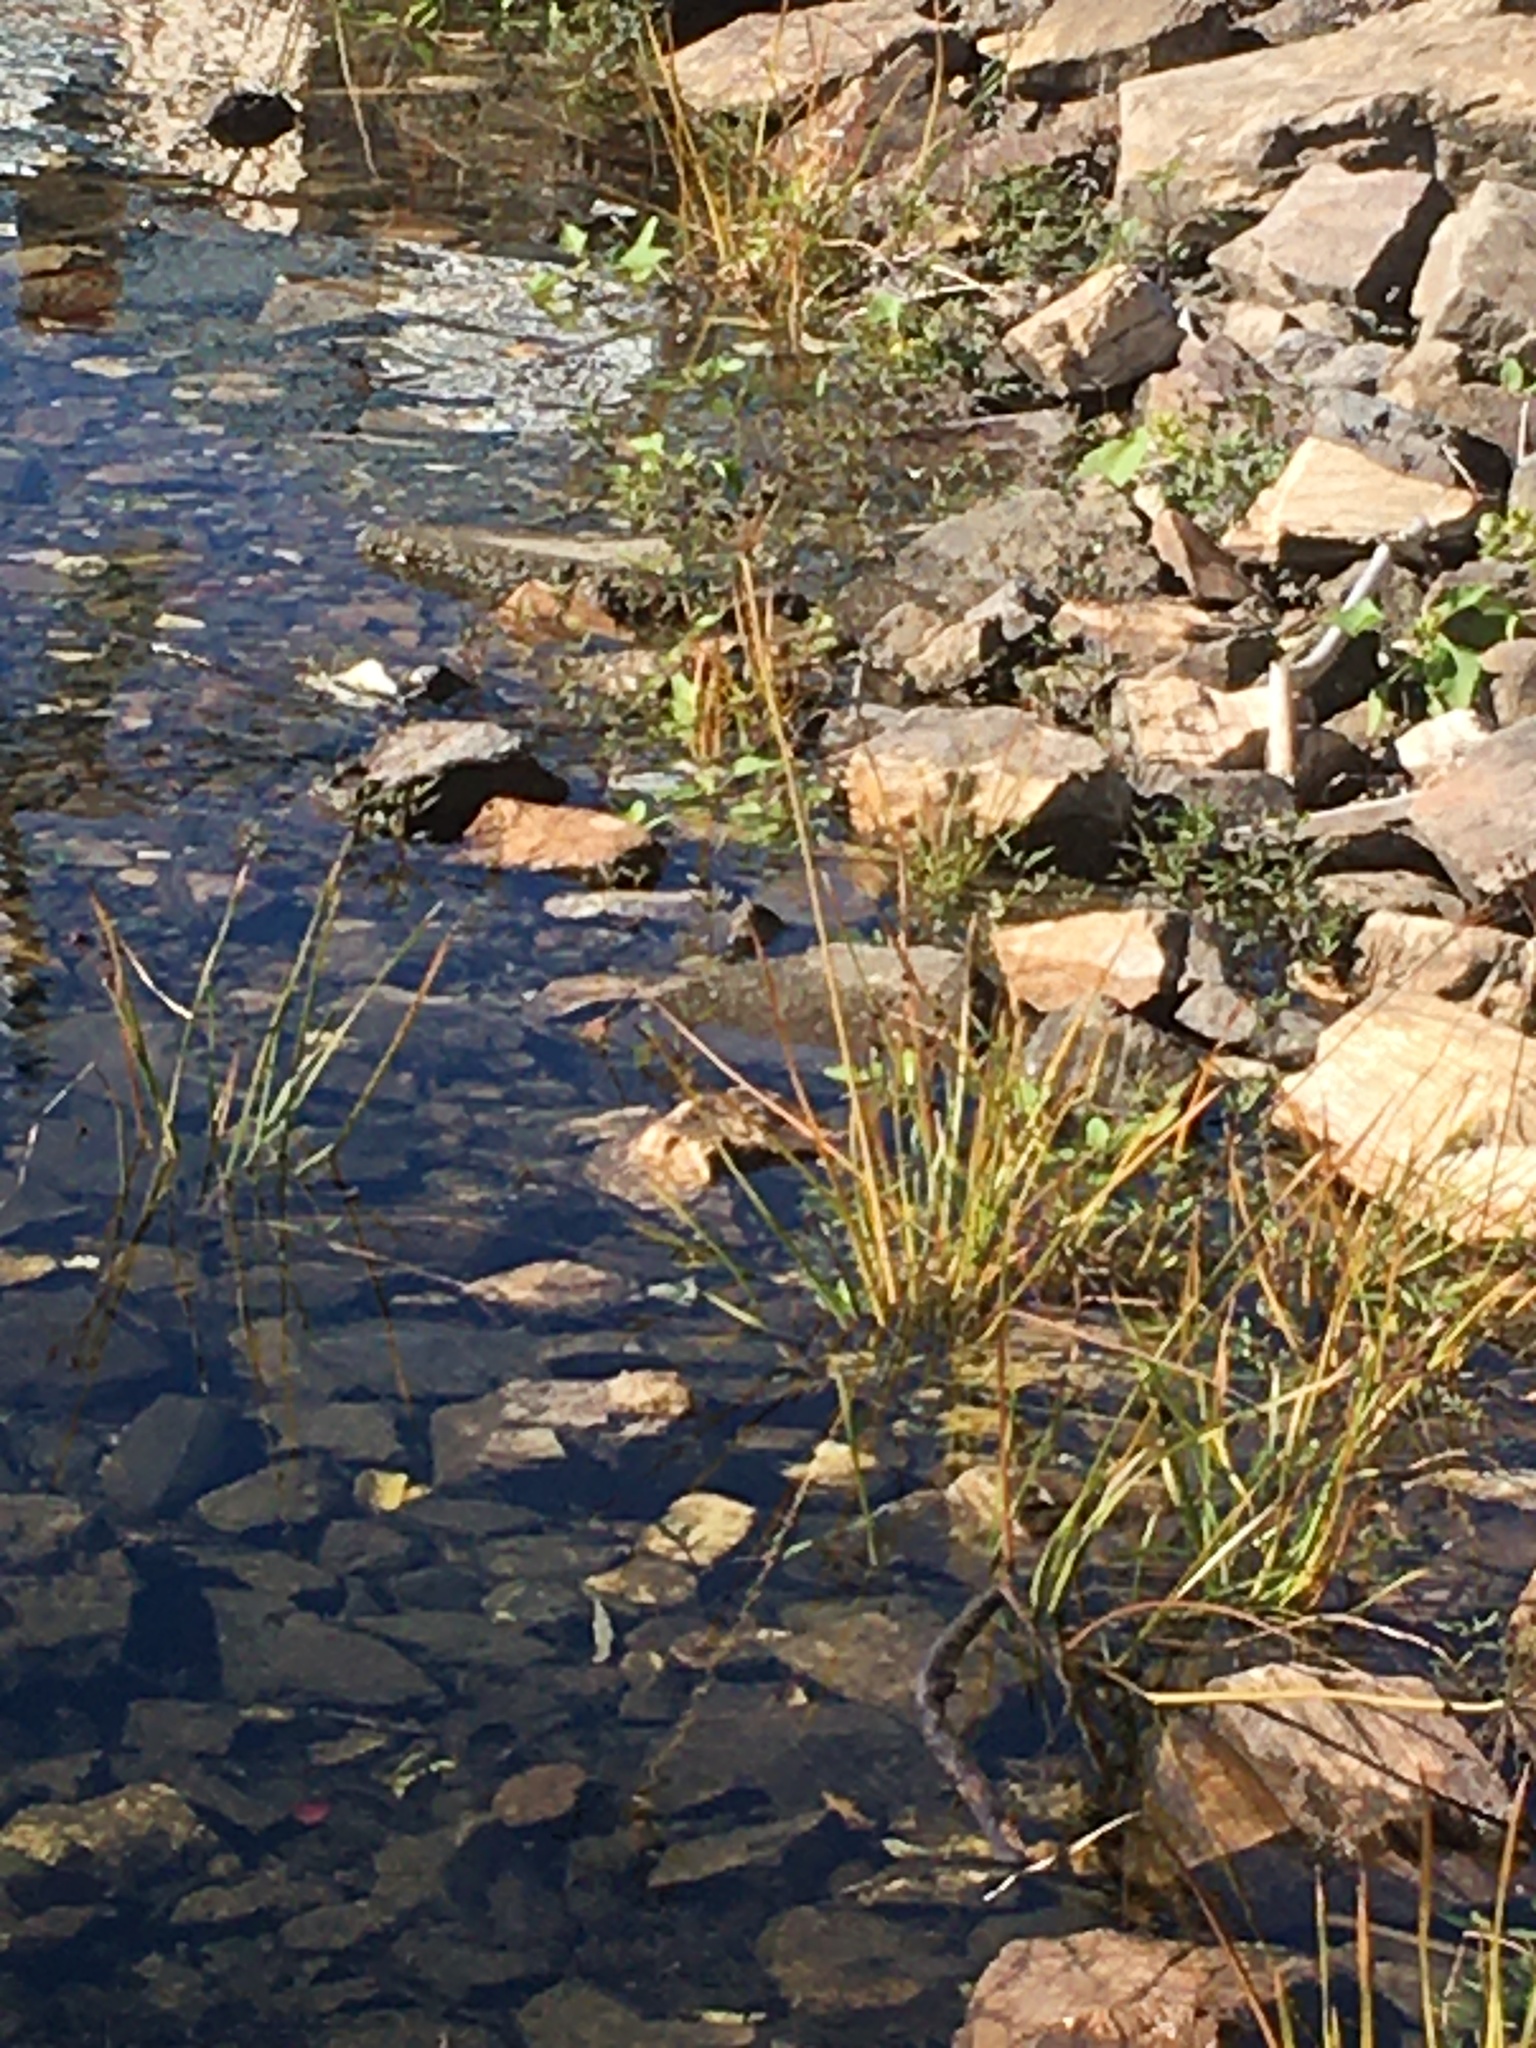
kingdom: Plantae
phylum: Tracheophyta
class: Liliopsida
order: Alismatales
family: Butomaceae
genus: Butomus
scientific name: Butomus umbellatus
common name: Flowering-rush
